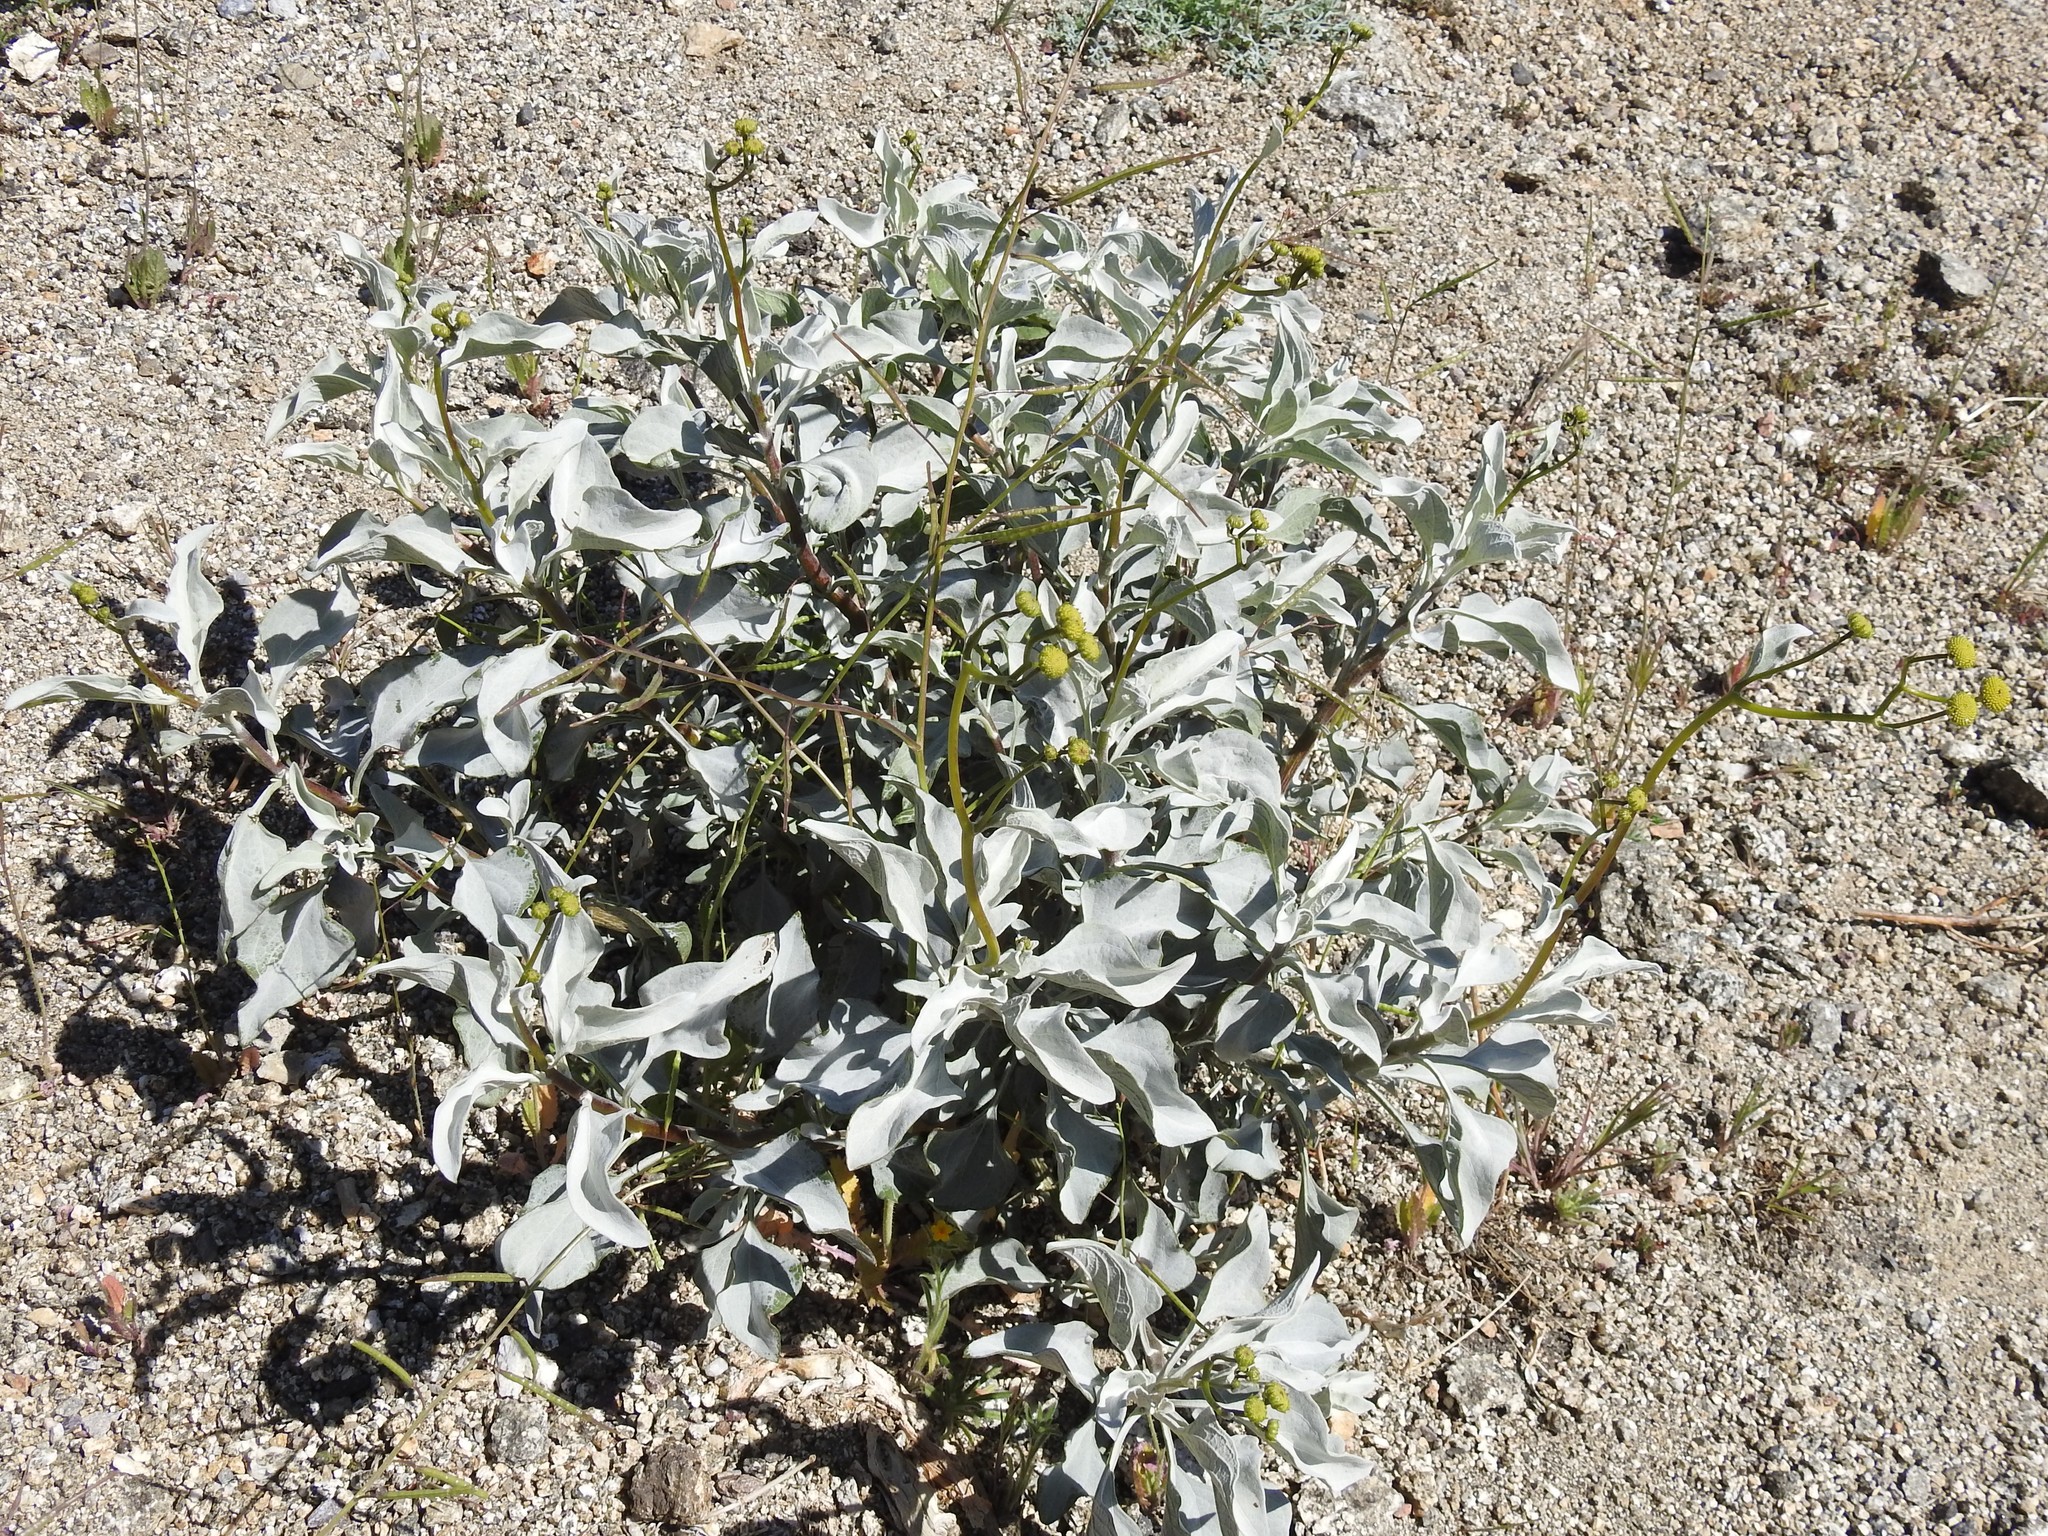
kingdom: Plantae
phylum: Tracheophyta
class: Magnoliopsida
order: Asterales
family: Asteraceae
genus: Encelia
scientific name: Encelia farinosa
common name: Brittlebush
